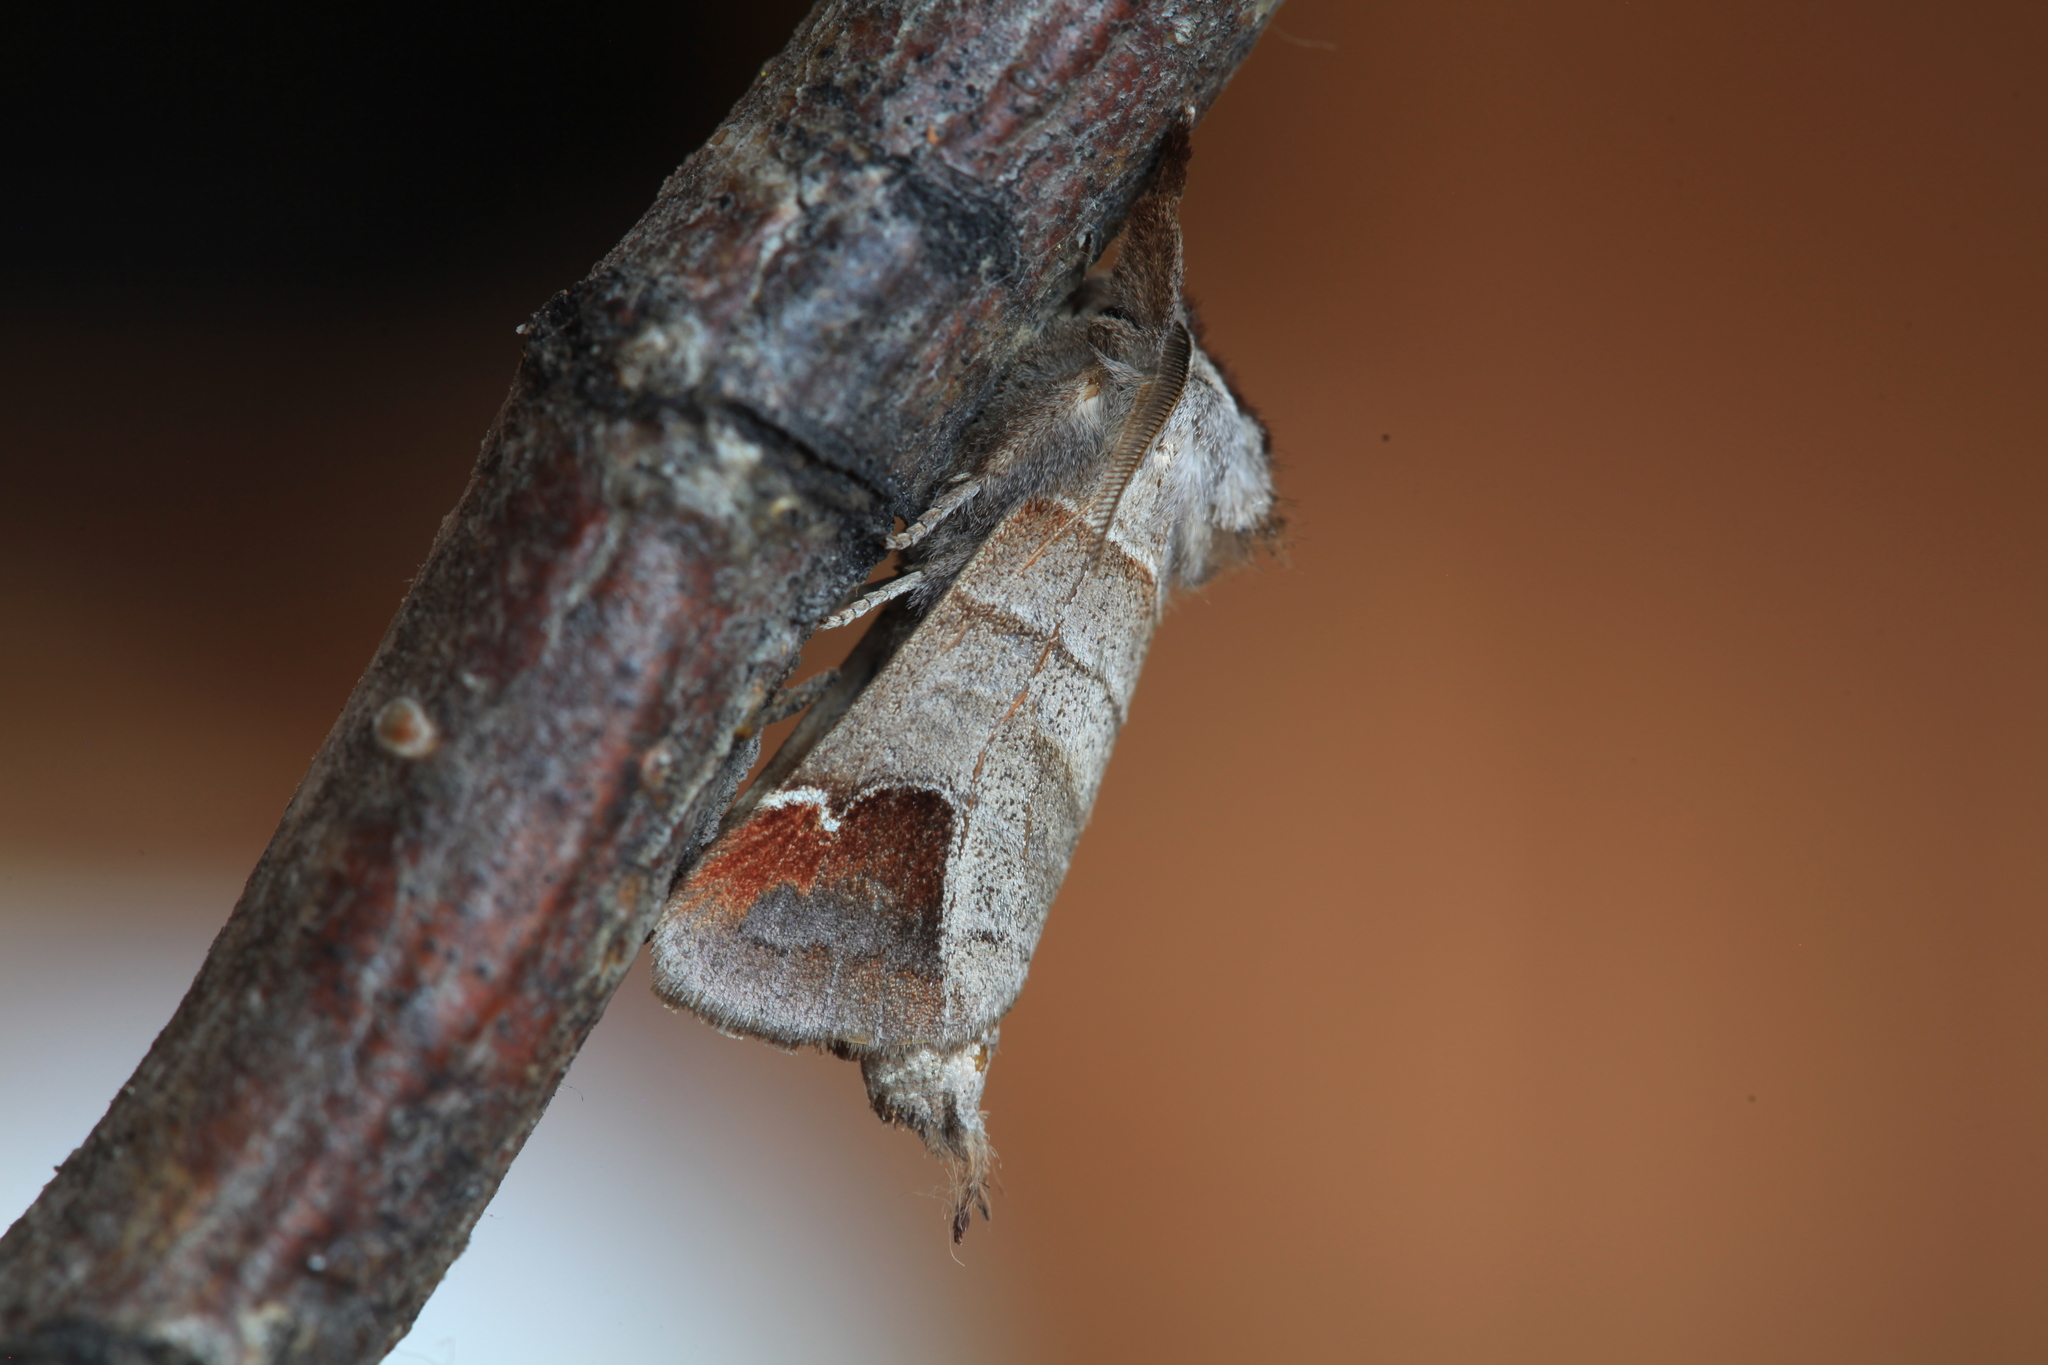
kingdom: Animalia
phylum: Arthropoda
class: Insecta
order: Lepidoptera
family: Notodontidae
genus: Clostera
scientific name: Clostera albosigma
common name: Sigmoid prominent
